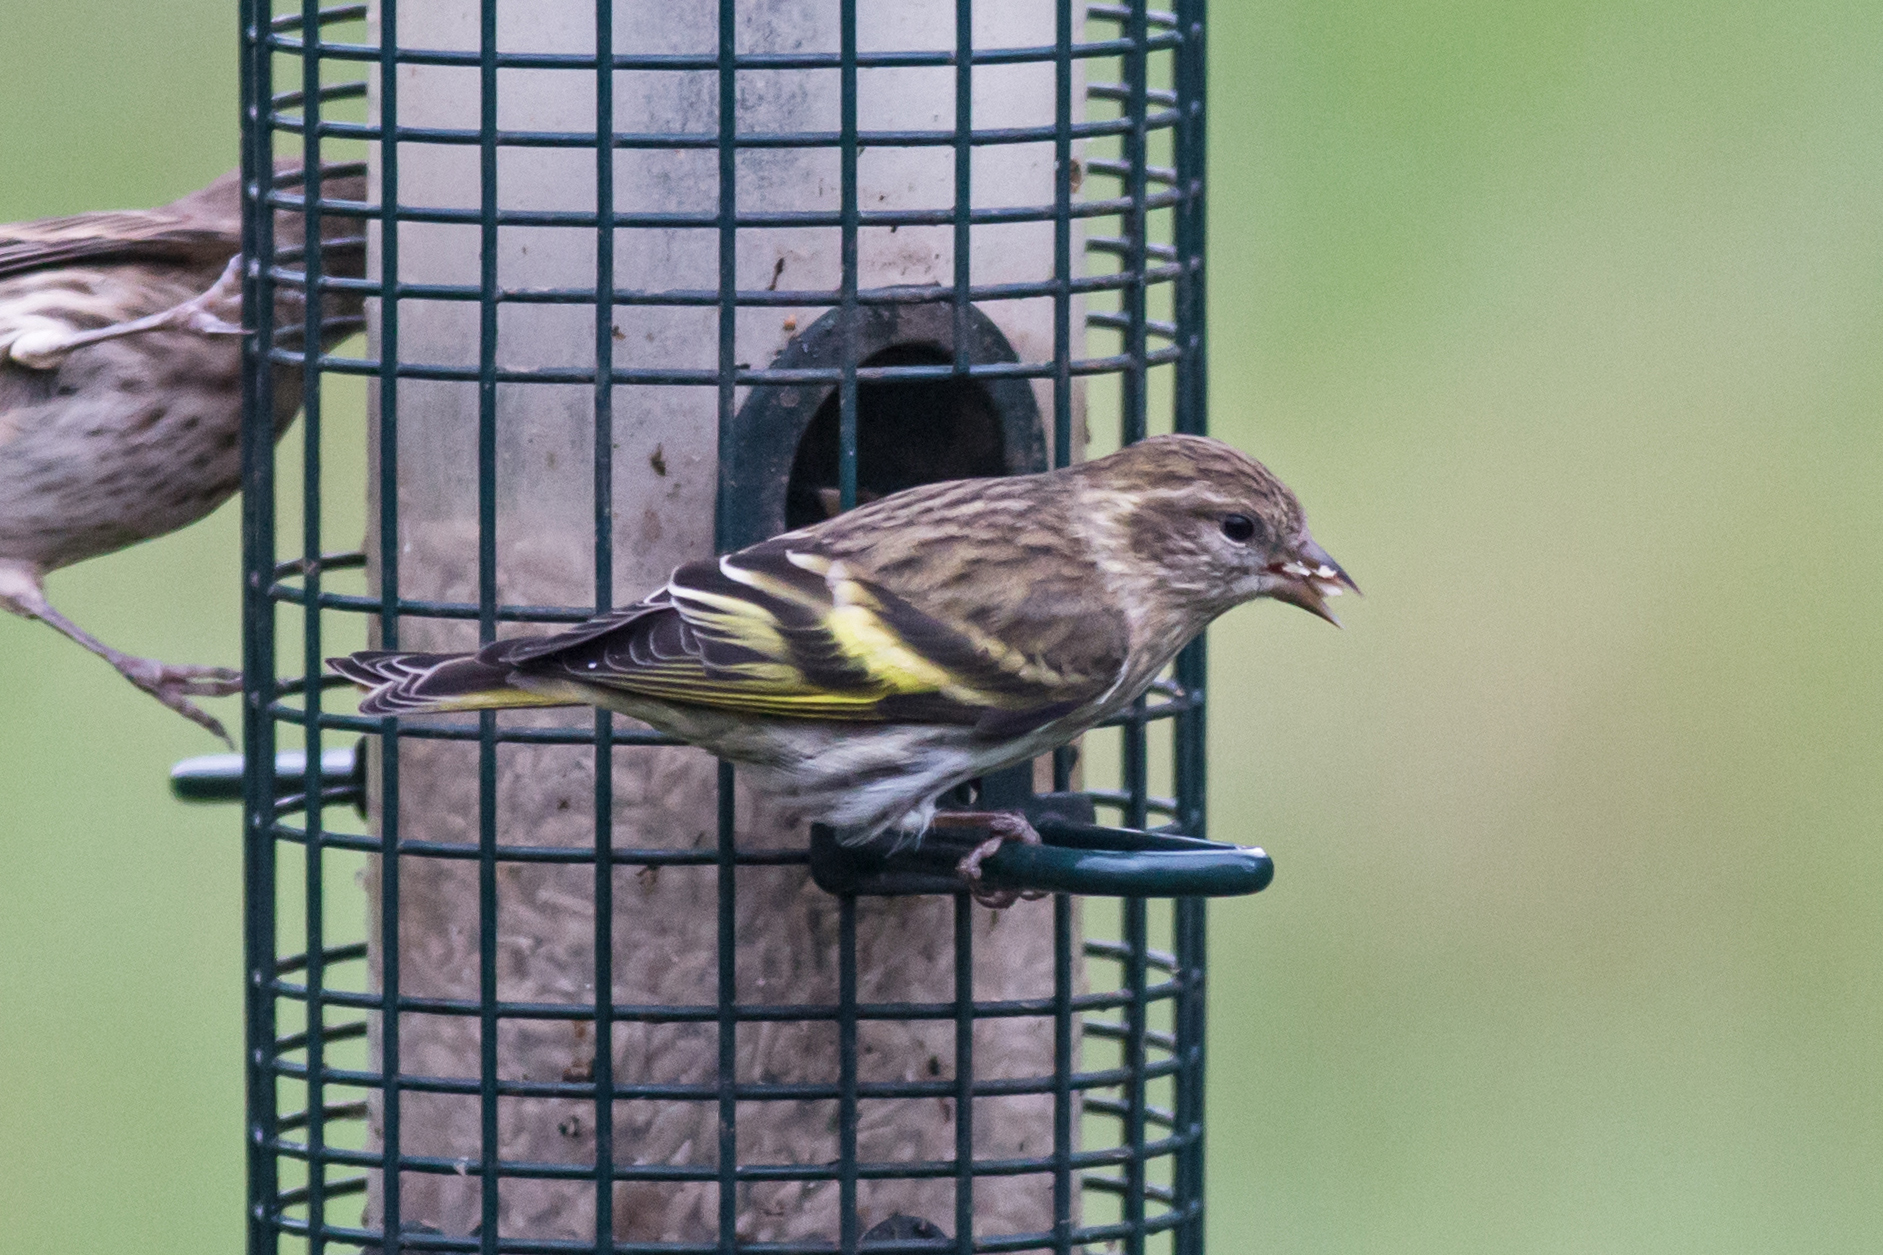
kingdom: Animalia
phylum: Chordata
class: Aves
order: Passeriformes
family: Fringillidae
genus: Spinus
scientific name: Spinus pinus
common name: Pine siskin
